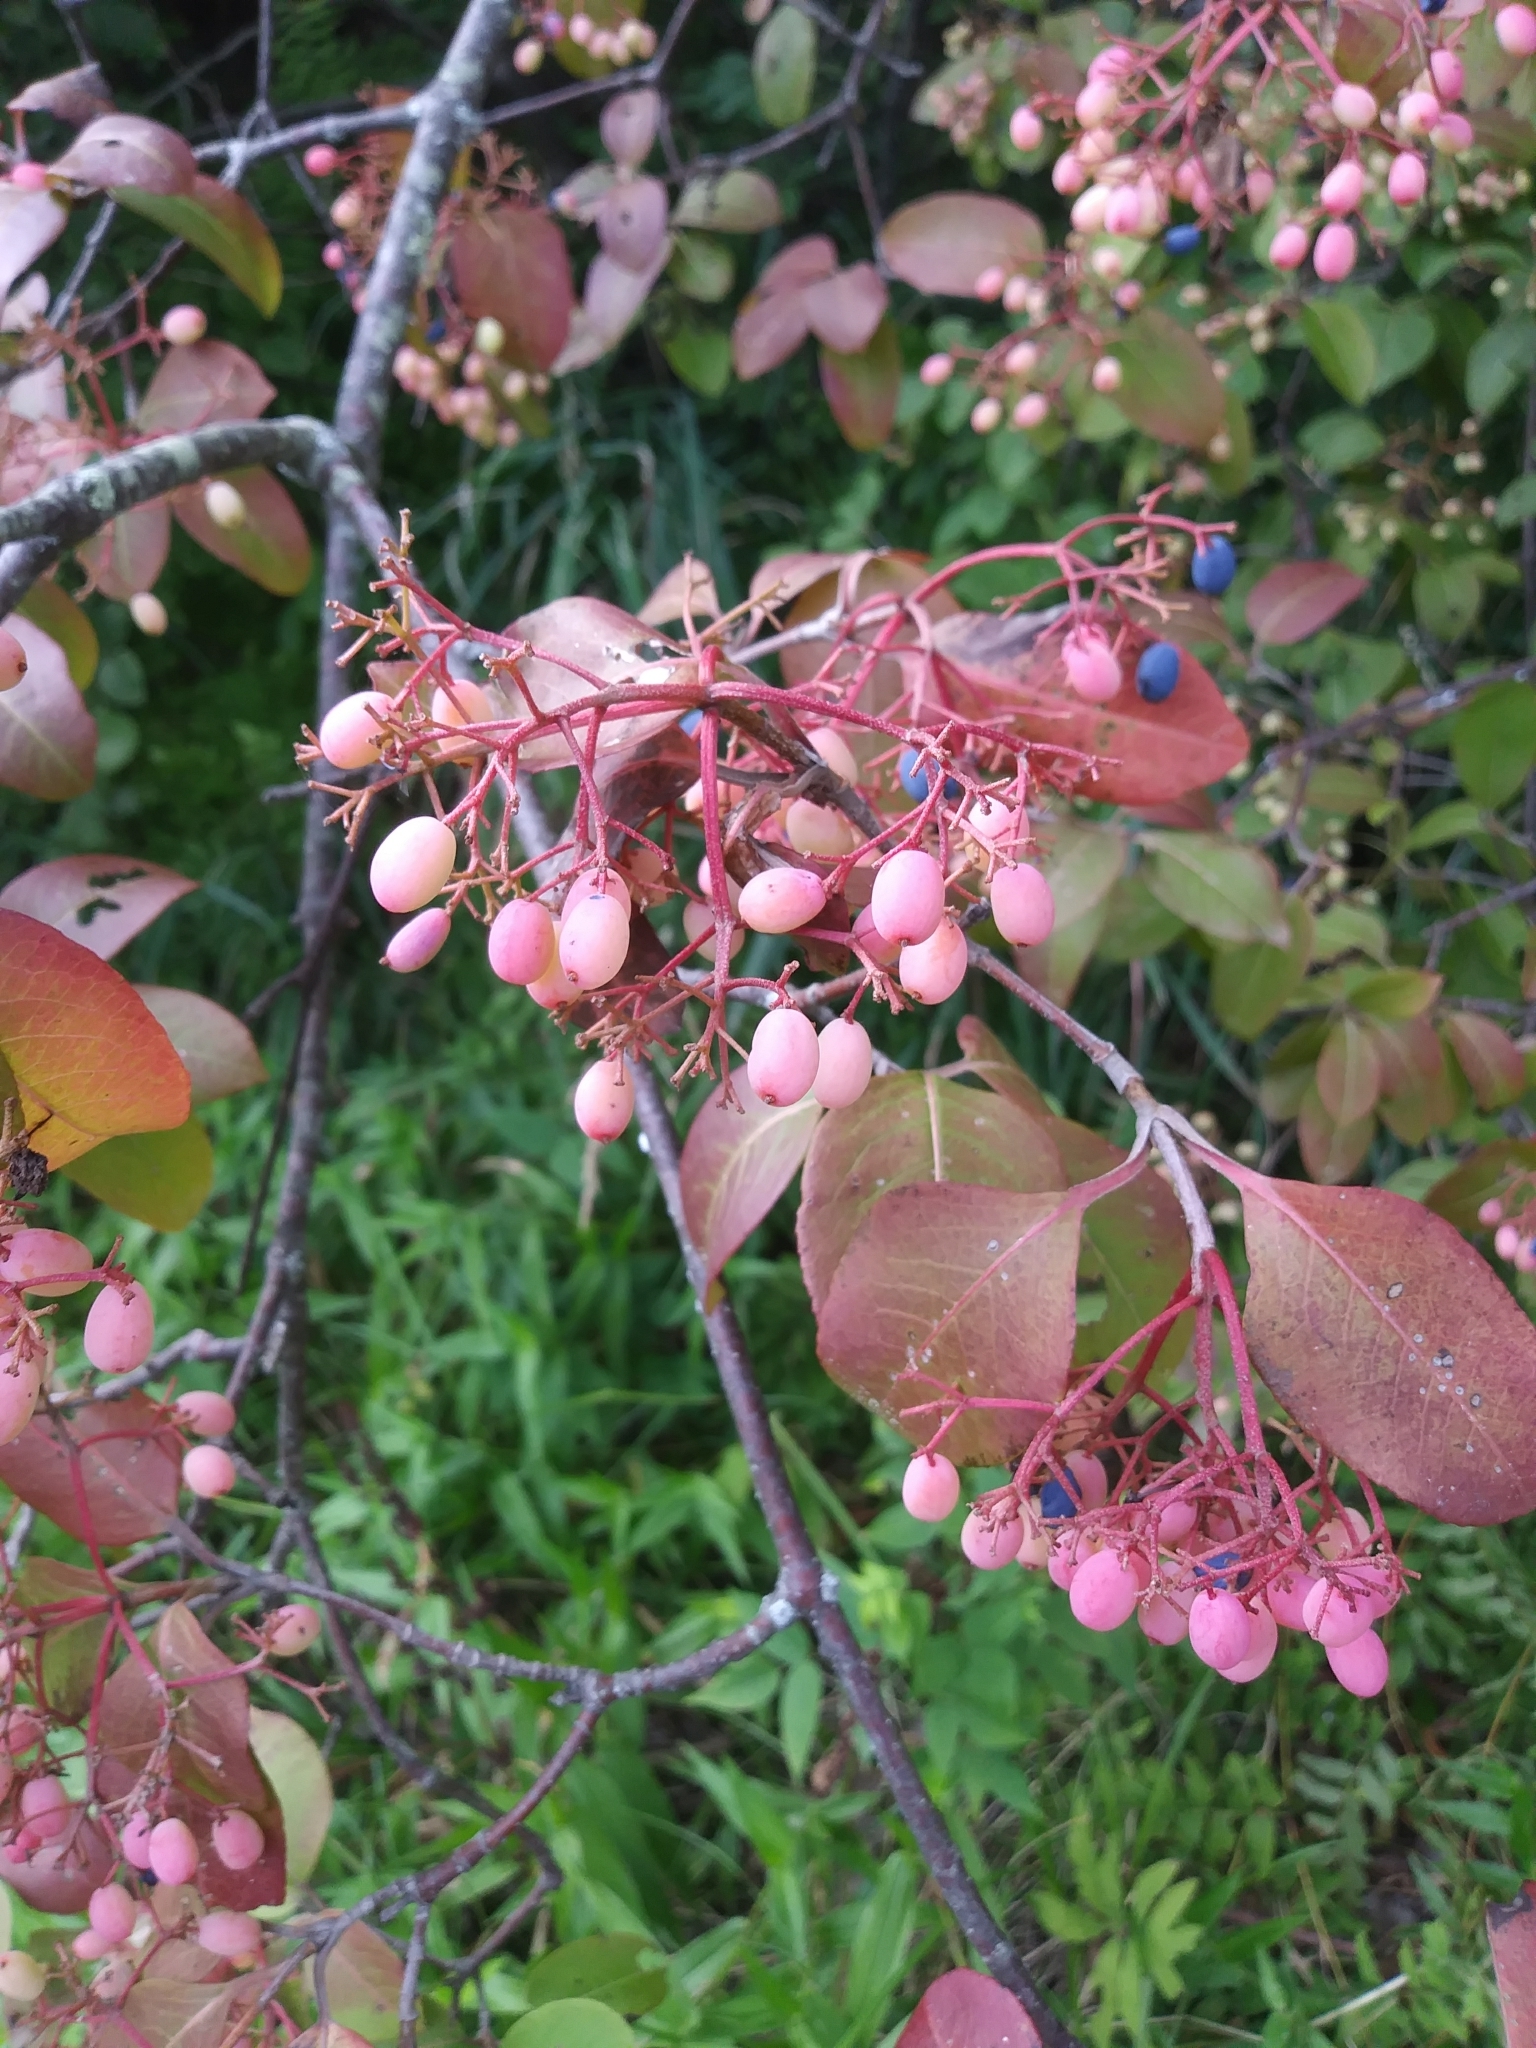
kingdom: Plantae
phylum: Tracheophyta
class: Magnoliopsida
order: Dipsacales
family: Viburnaceae
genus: Viburnum
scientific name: Viburnum cassinoides
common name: Swamp haw
